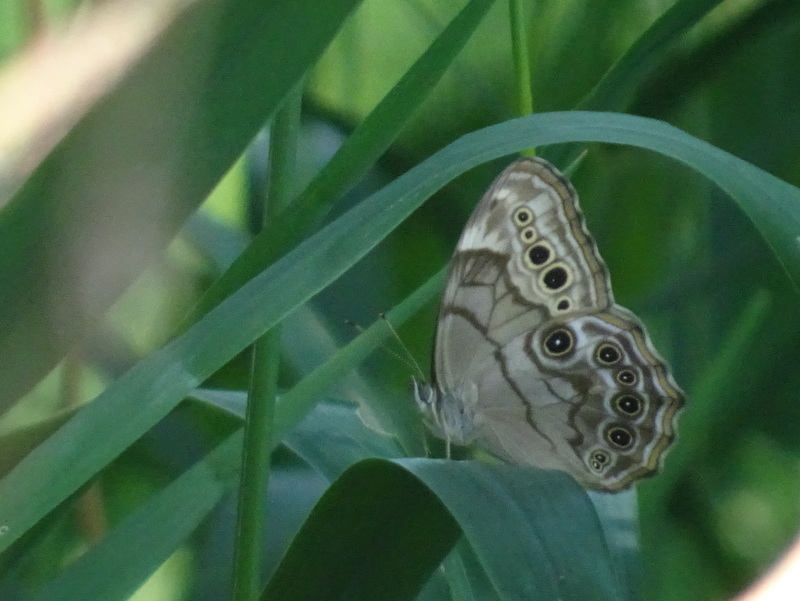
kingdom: Animalia
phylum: Arthropoda
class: Insecta
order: Lepidoptera
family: Nymphalidae
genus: Lethe
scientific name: Lethe anthedon
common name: Northern pearly-eye
